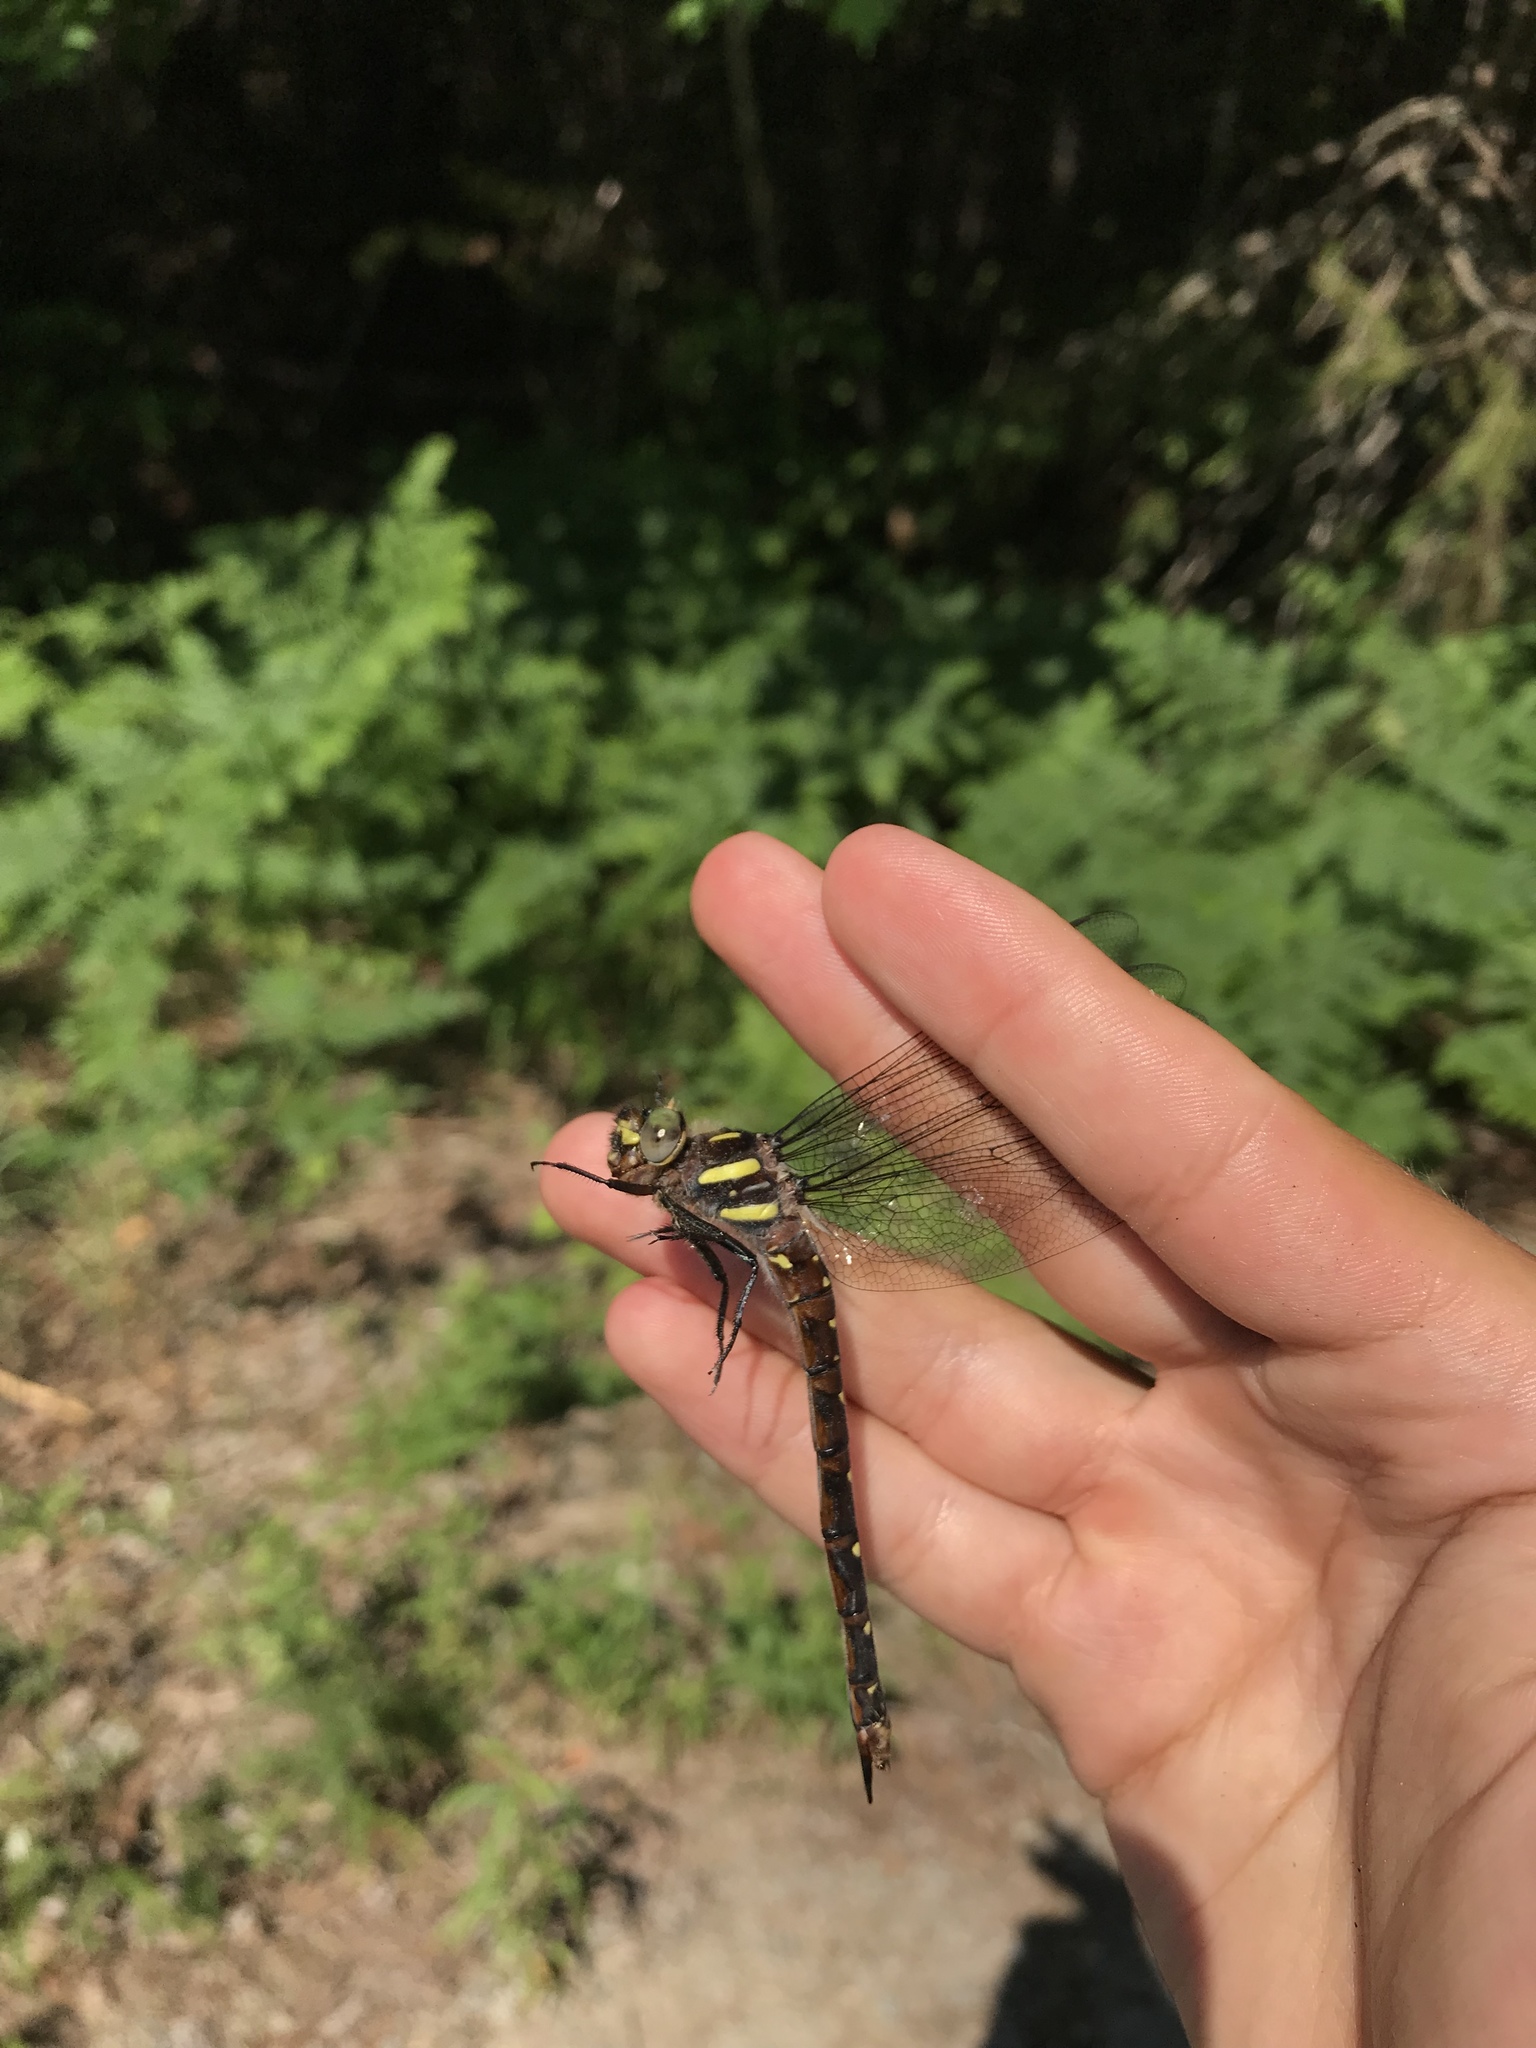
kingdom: Animalia
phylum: Arthropoda
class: Insecta
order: Odonata
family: Cordulegastridae
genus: Cordulegaster
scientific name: Cordulegaster maculata
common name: Twin-spotted spiketail
